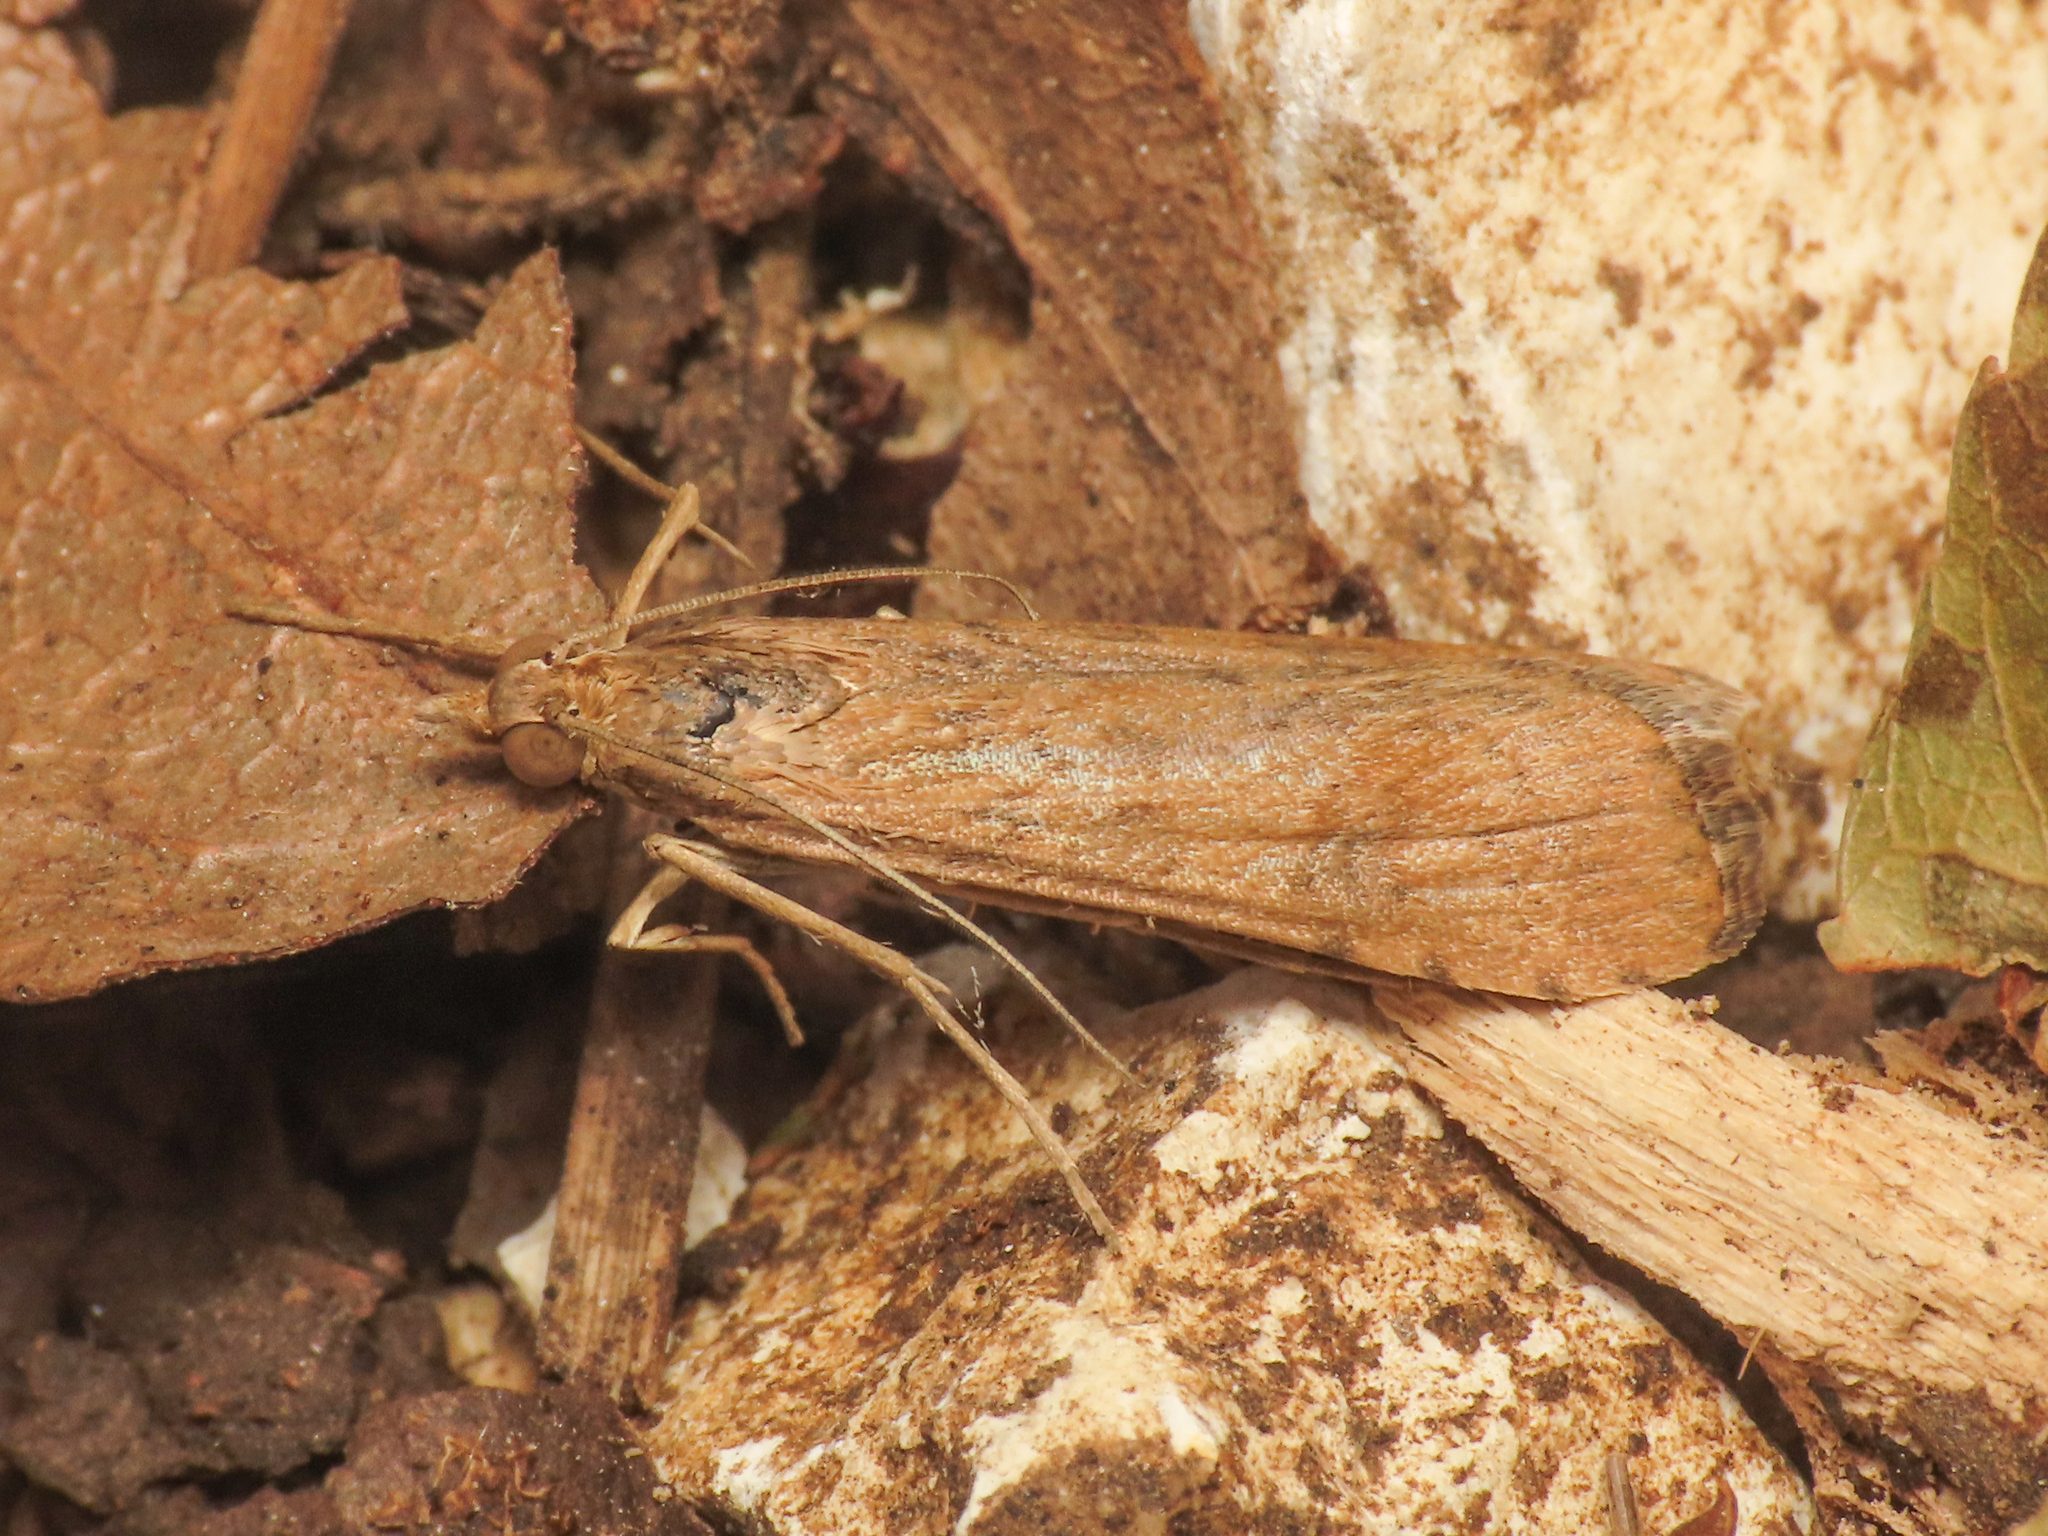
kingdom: Animalia
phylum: Arthropoda
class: Insecta
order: Lepidoptera
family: Crambidae
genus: Nomophila
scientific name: Nomophila noctuella
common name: Rush veneer
